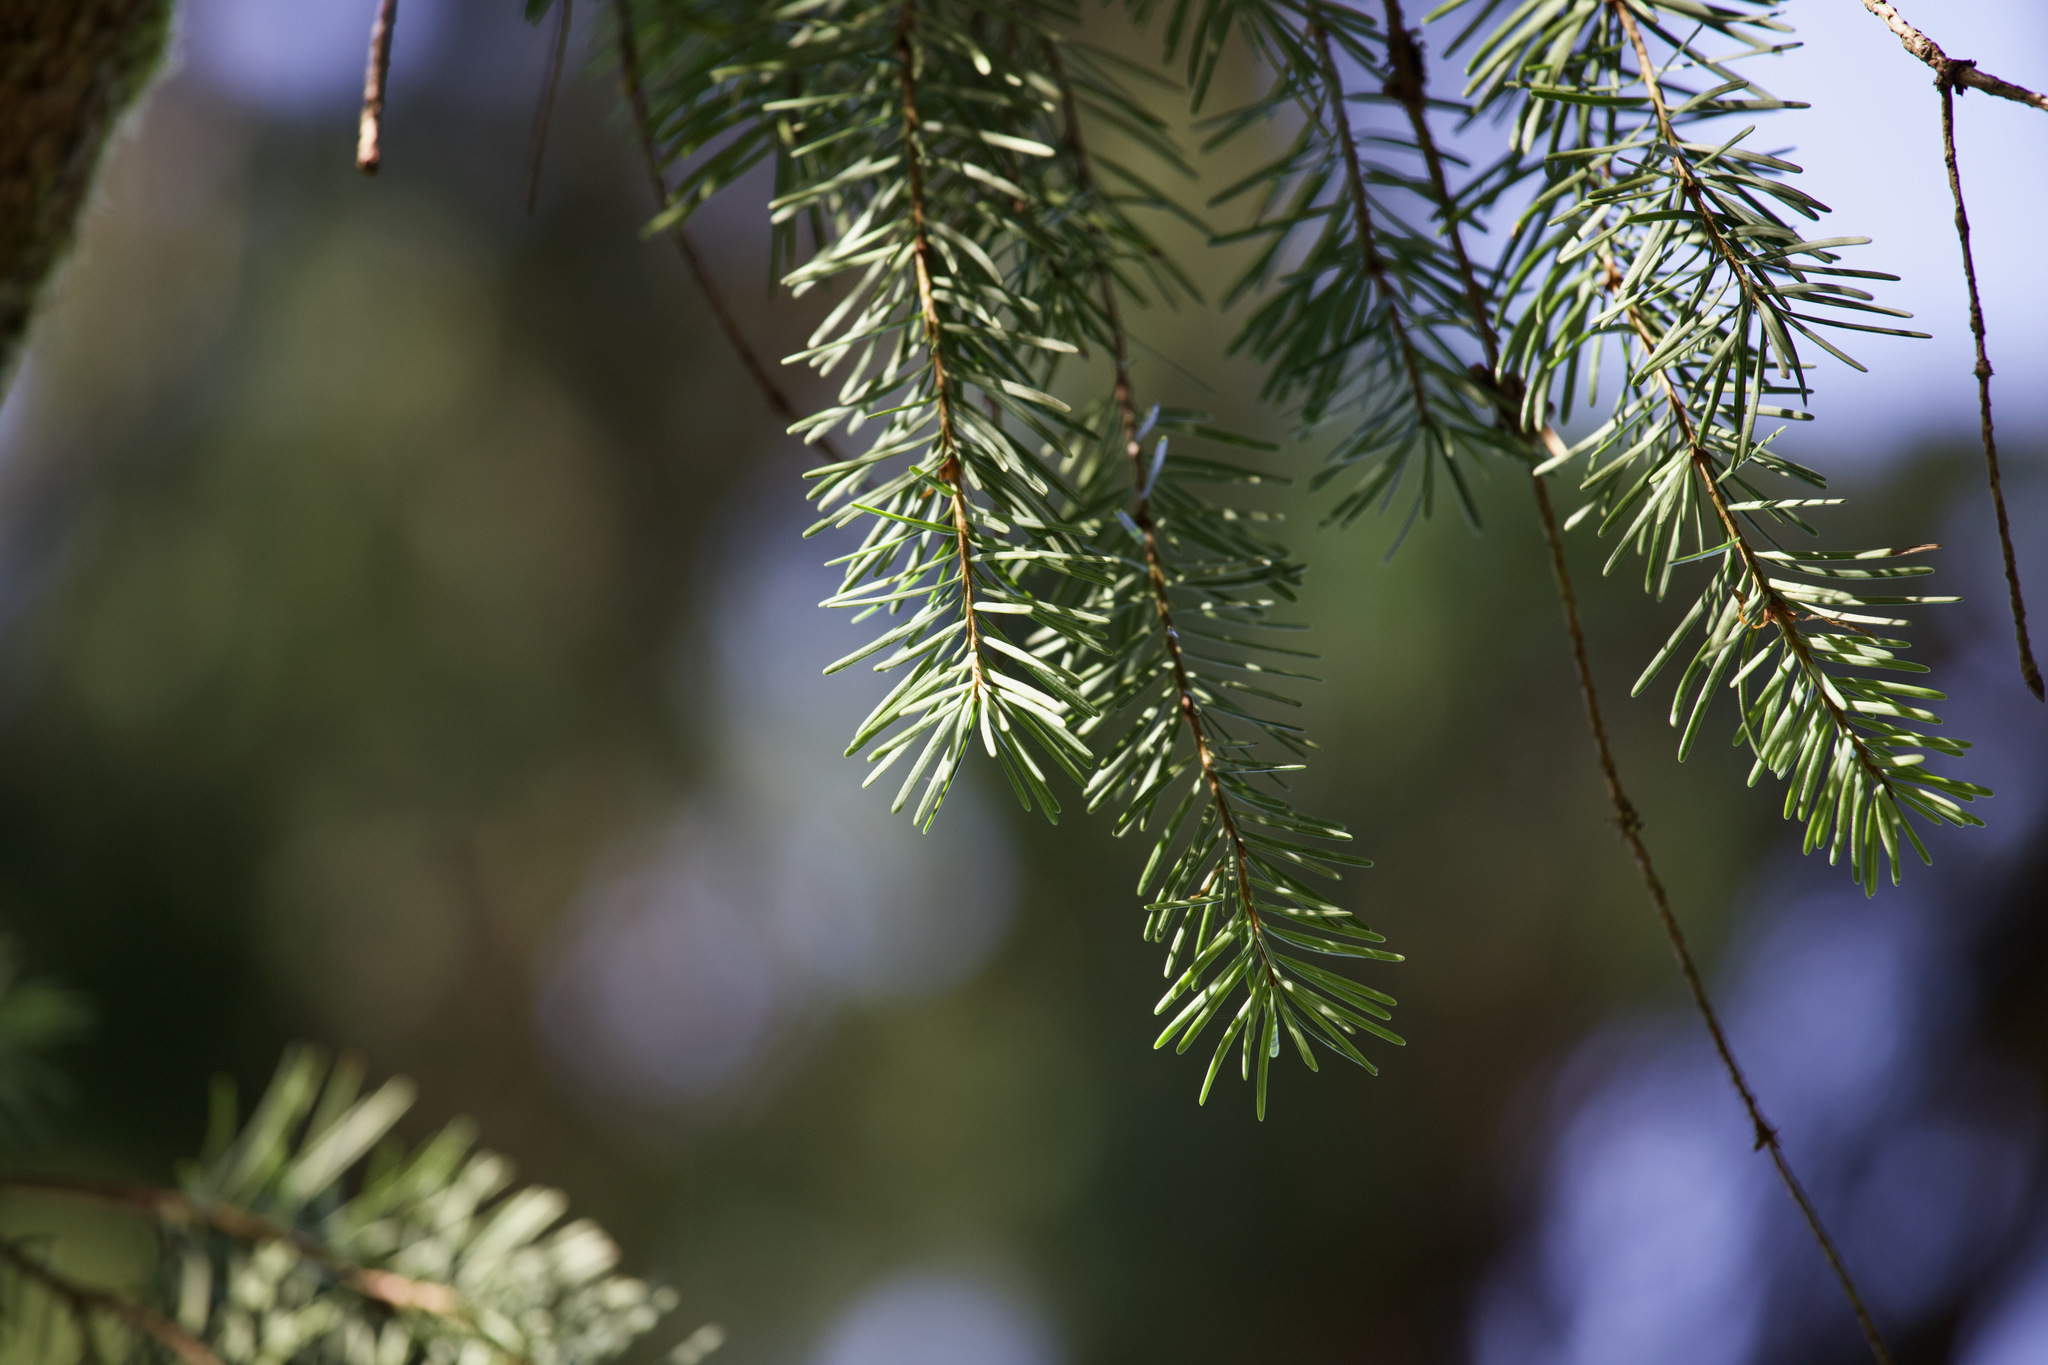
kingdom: Plantae
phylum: Tracheophyta
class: Pinopsida
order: Pinales
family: Pinaceae
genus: Pseudotsuga
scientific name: Pseudotsuga menziesii
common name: Douglas fir
